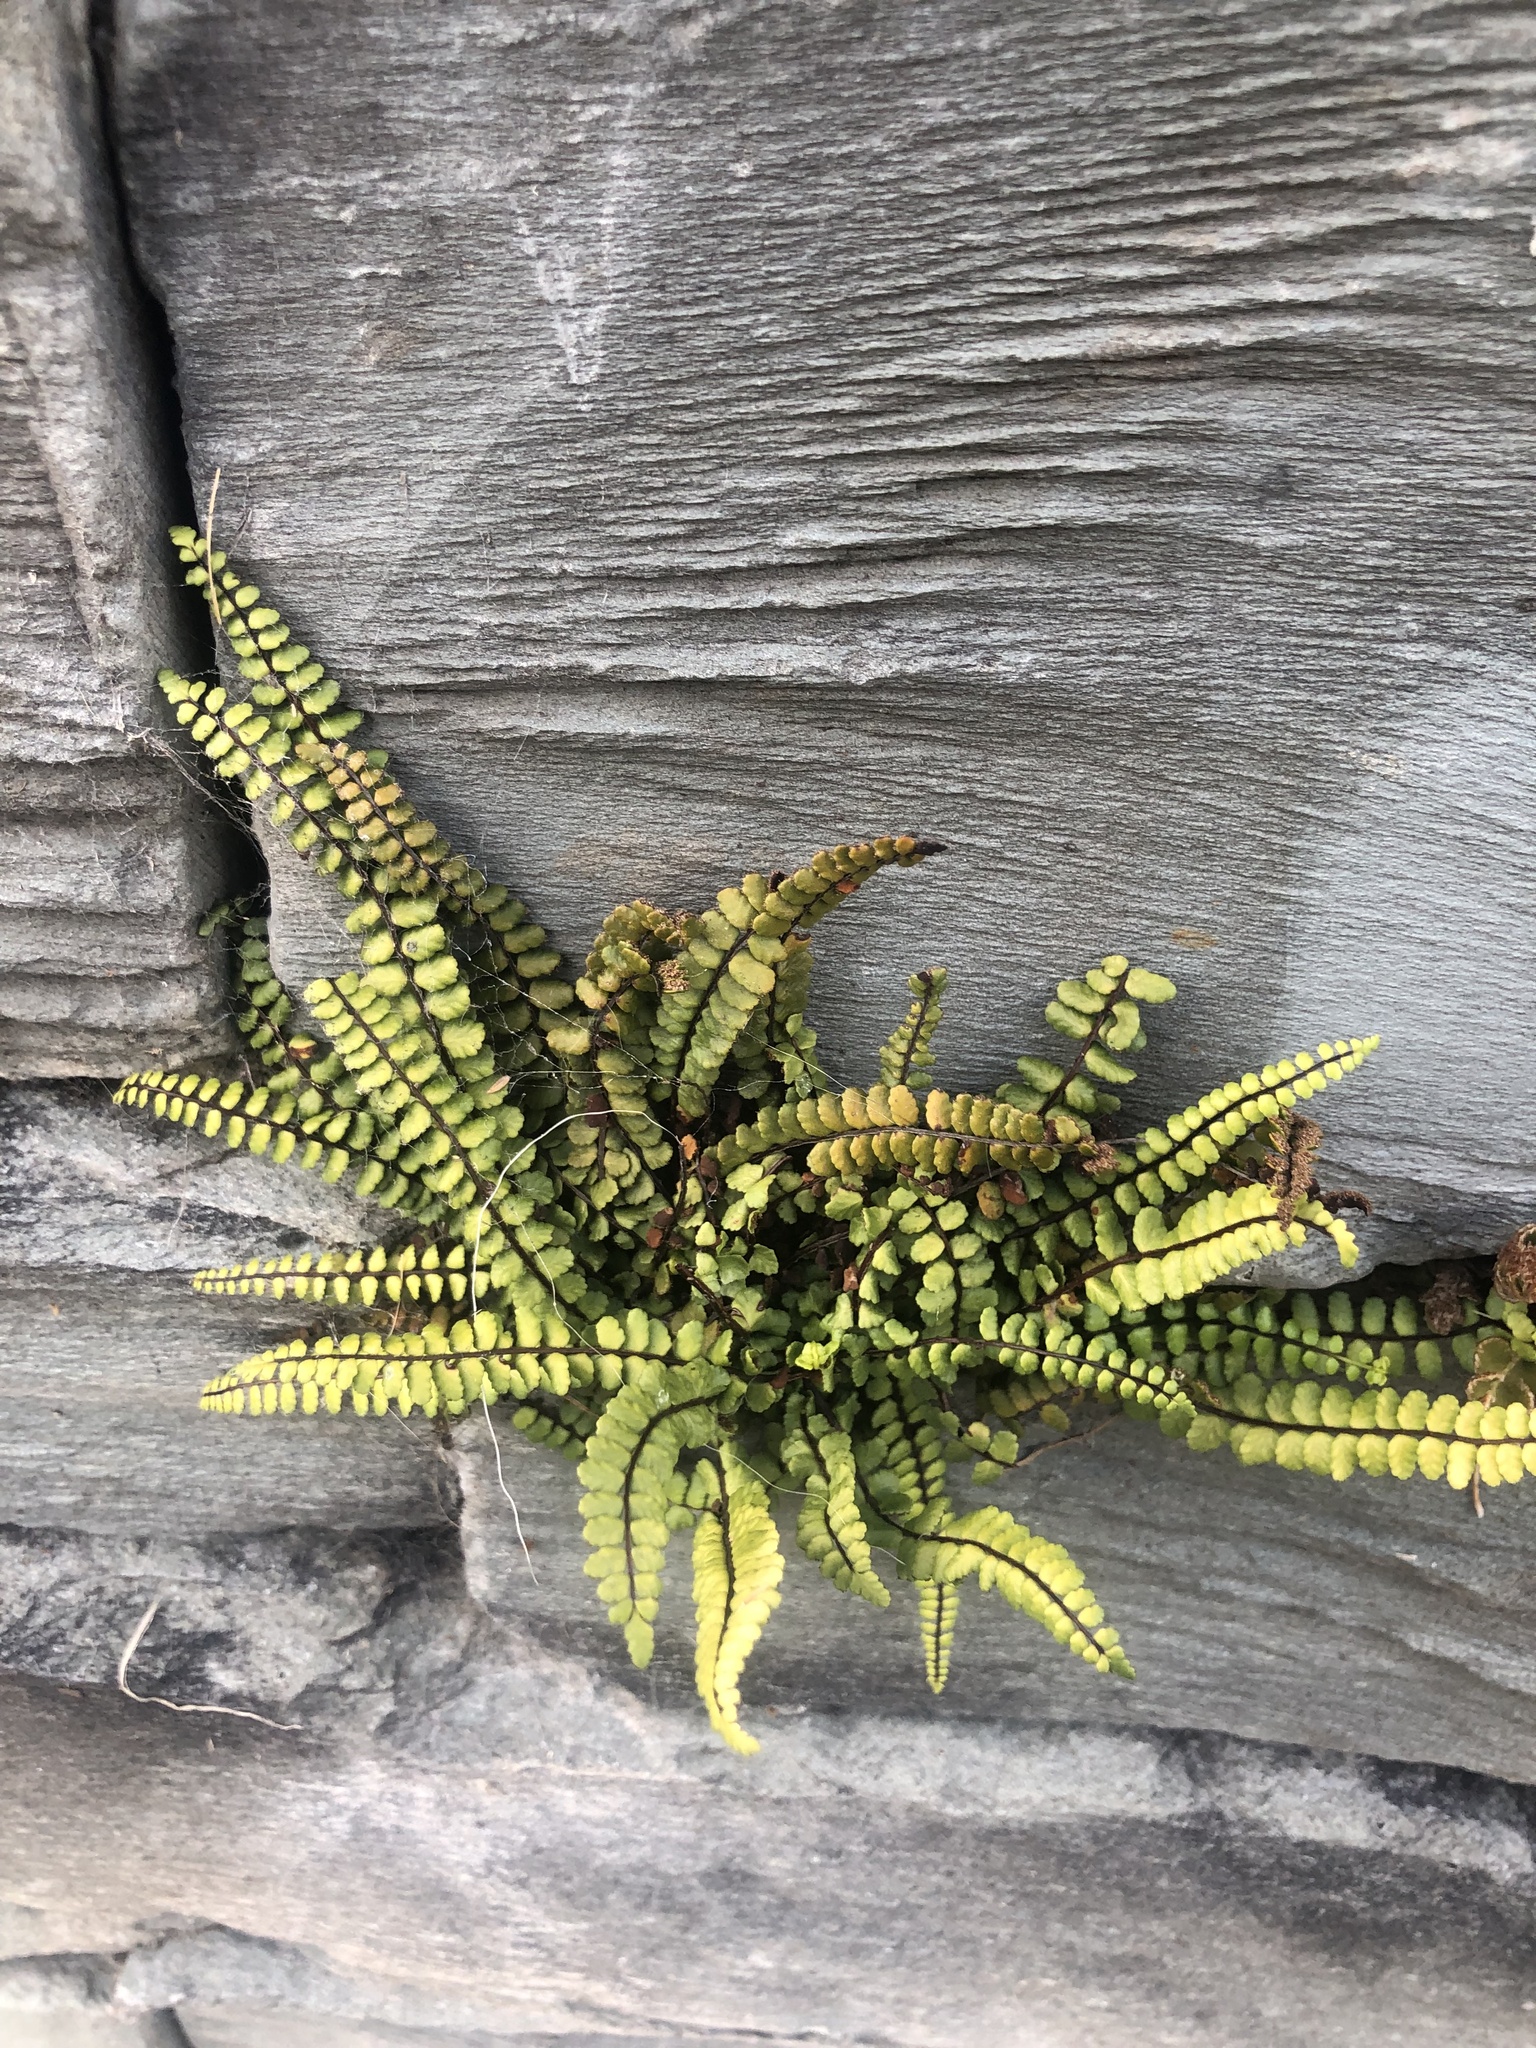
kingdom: Plantae
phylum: Tracheophyta
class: Polypodiopsida
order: Polypodiales
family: Aspleniaceae
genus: Asplenium
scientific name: Asplenium trichomanes
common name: Maidenhair spleenwort
